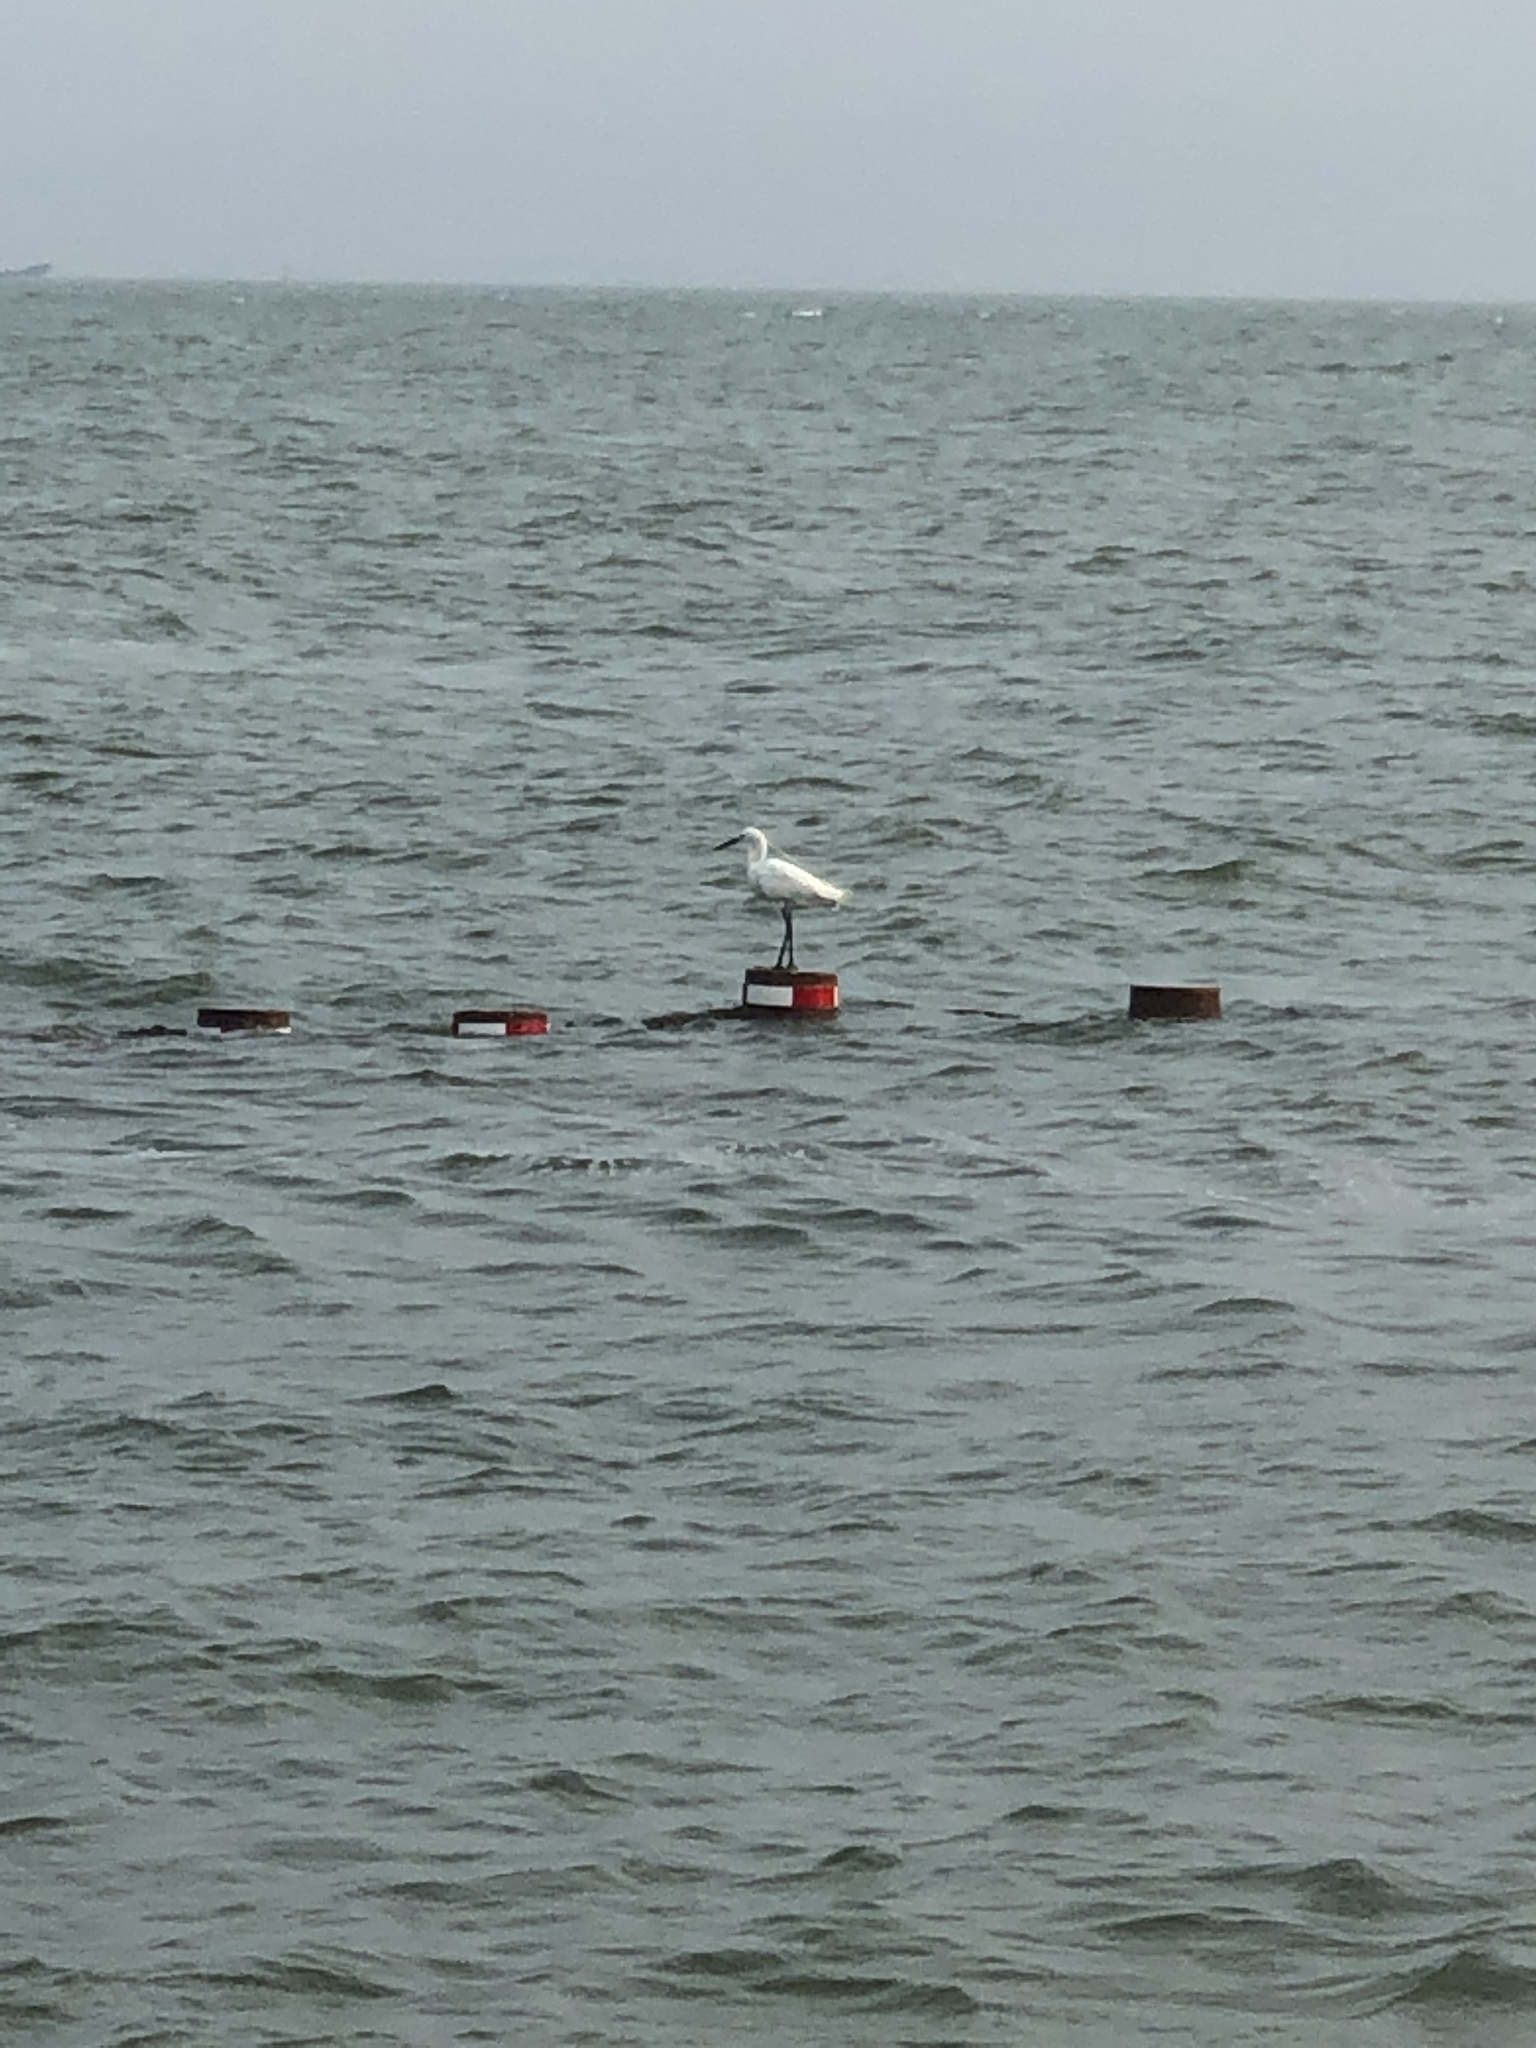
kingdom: Animalia
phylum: Chordata
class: Aves
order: Pelecaniformes
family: Ardeidae
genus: Egretta
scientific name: Egretta garzetta
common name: Little egret
